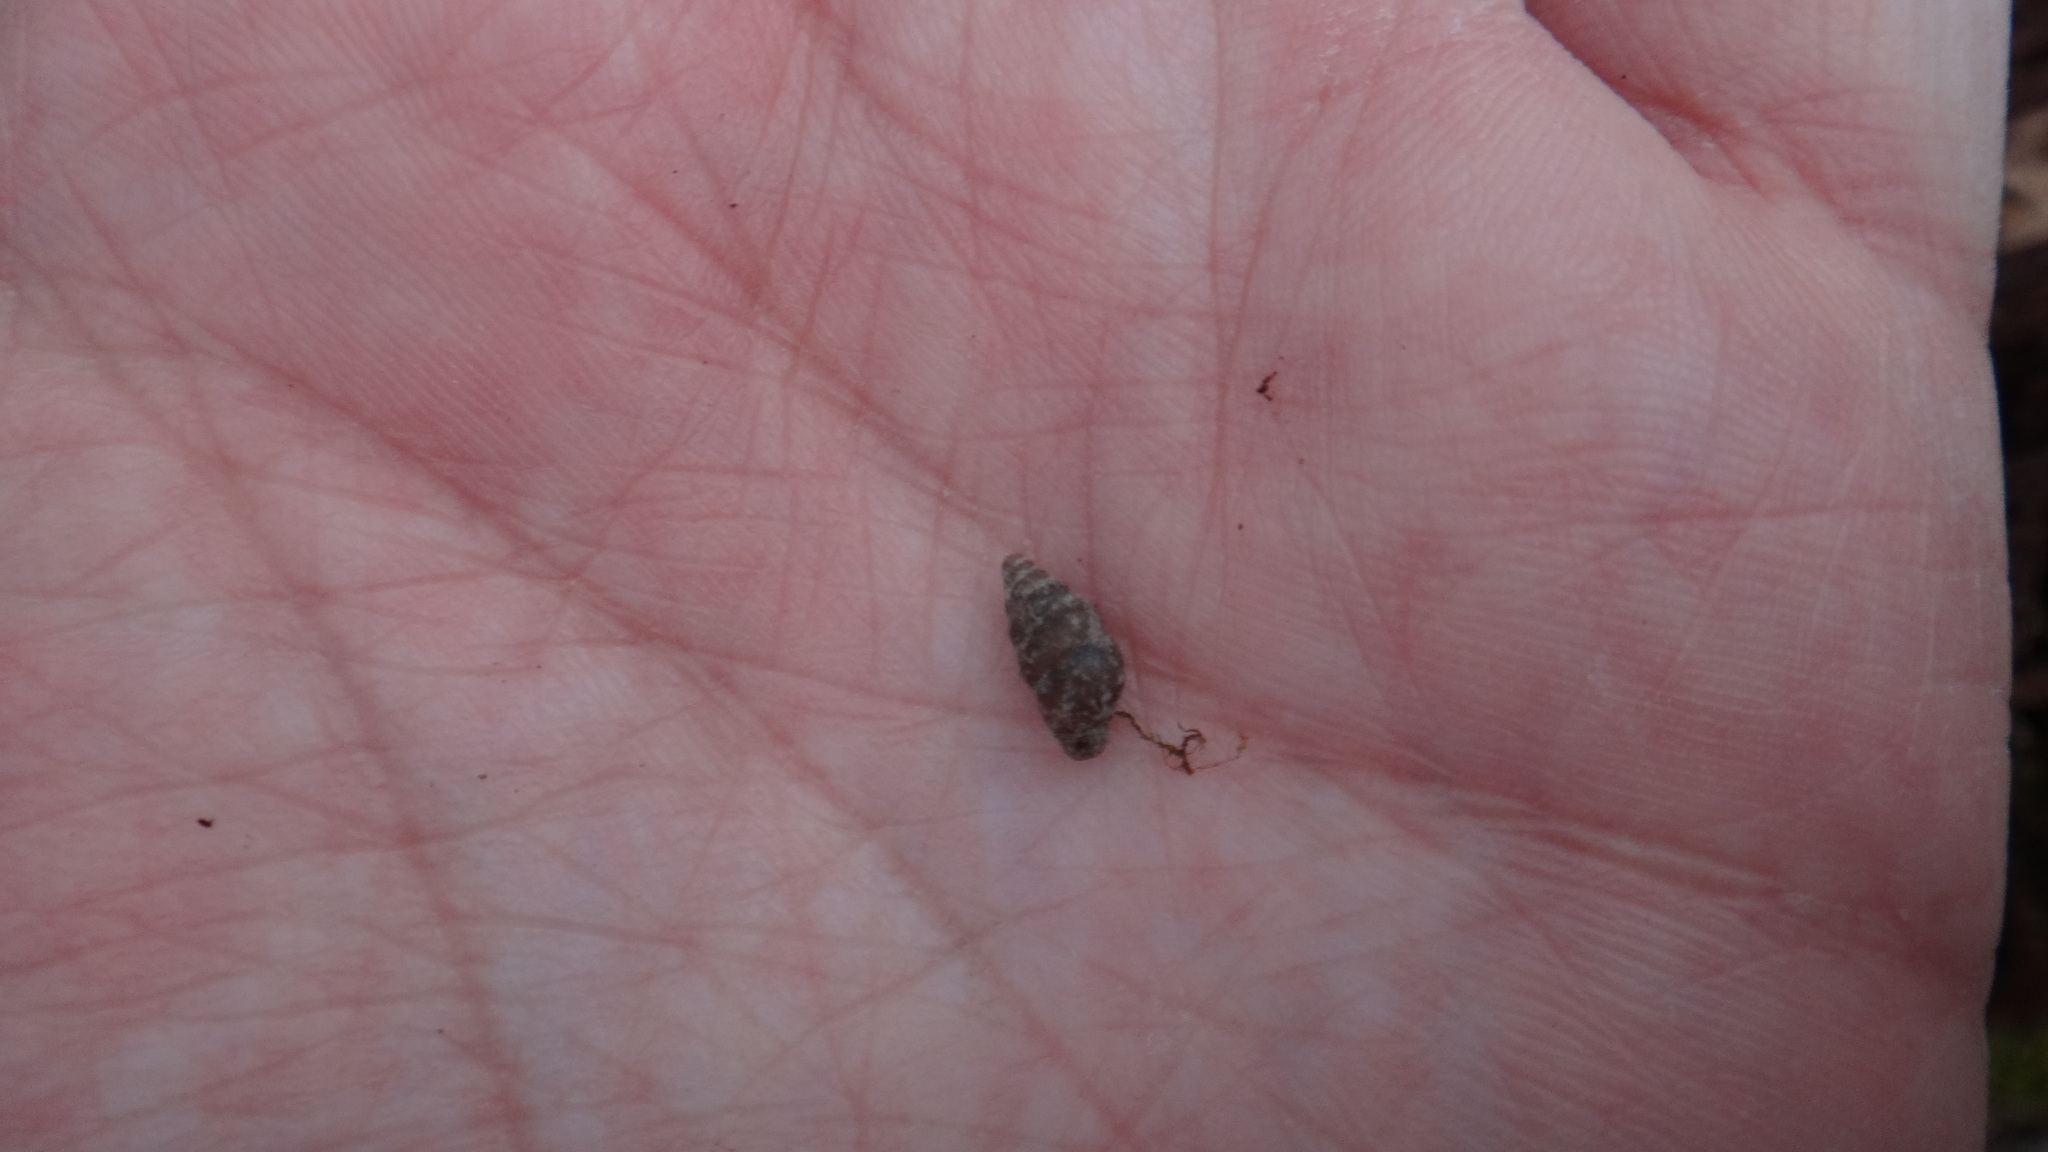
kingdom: Animalia
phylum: Mollusca
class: Gastropoda
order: Stylommatophora
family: Enidae
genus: Merdigera
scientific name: Merdigera obscura
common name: Lesser bulin
